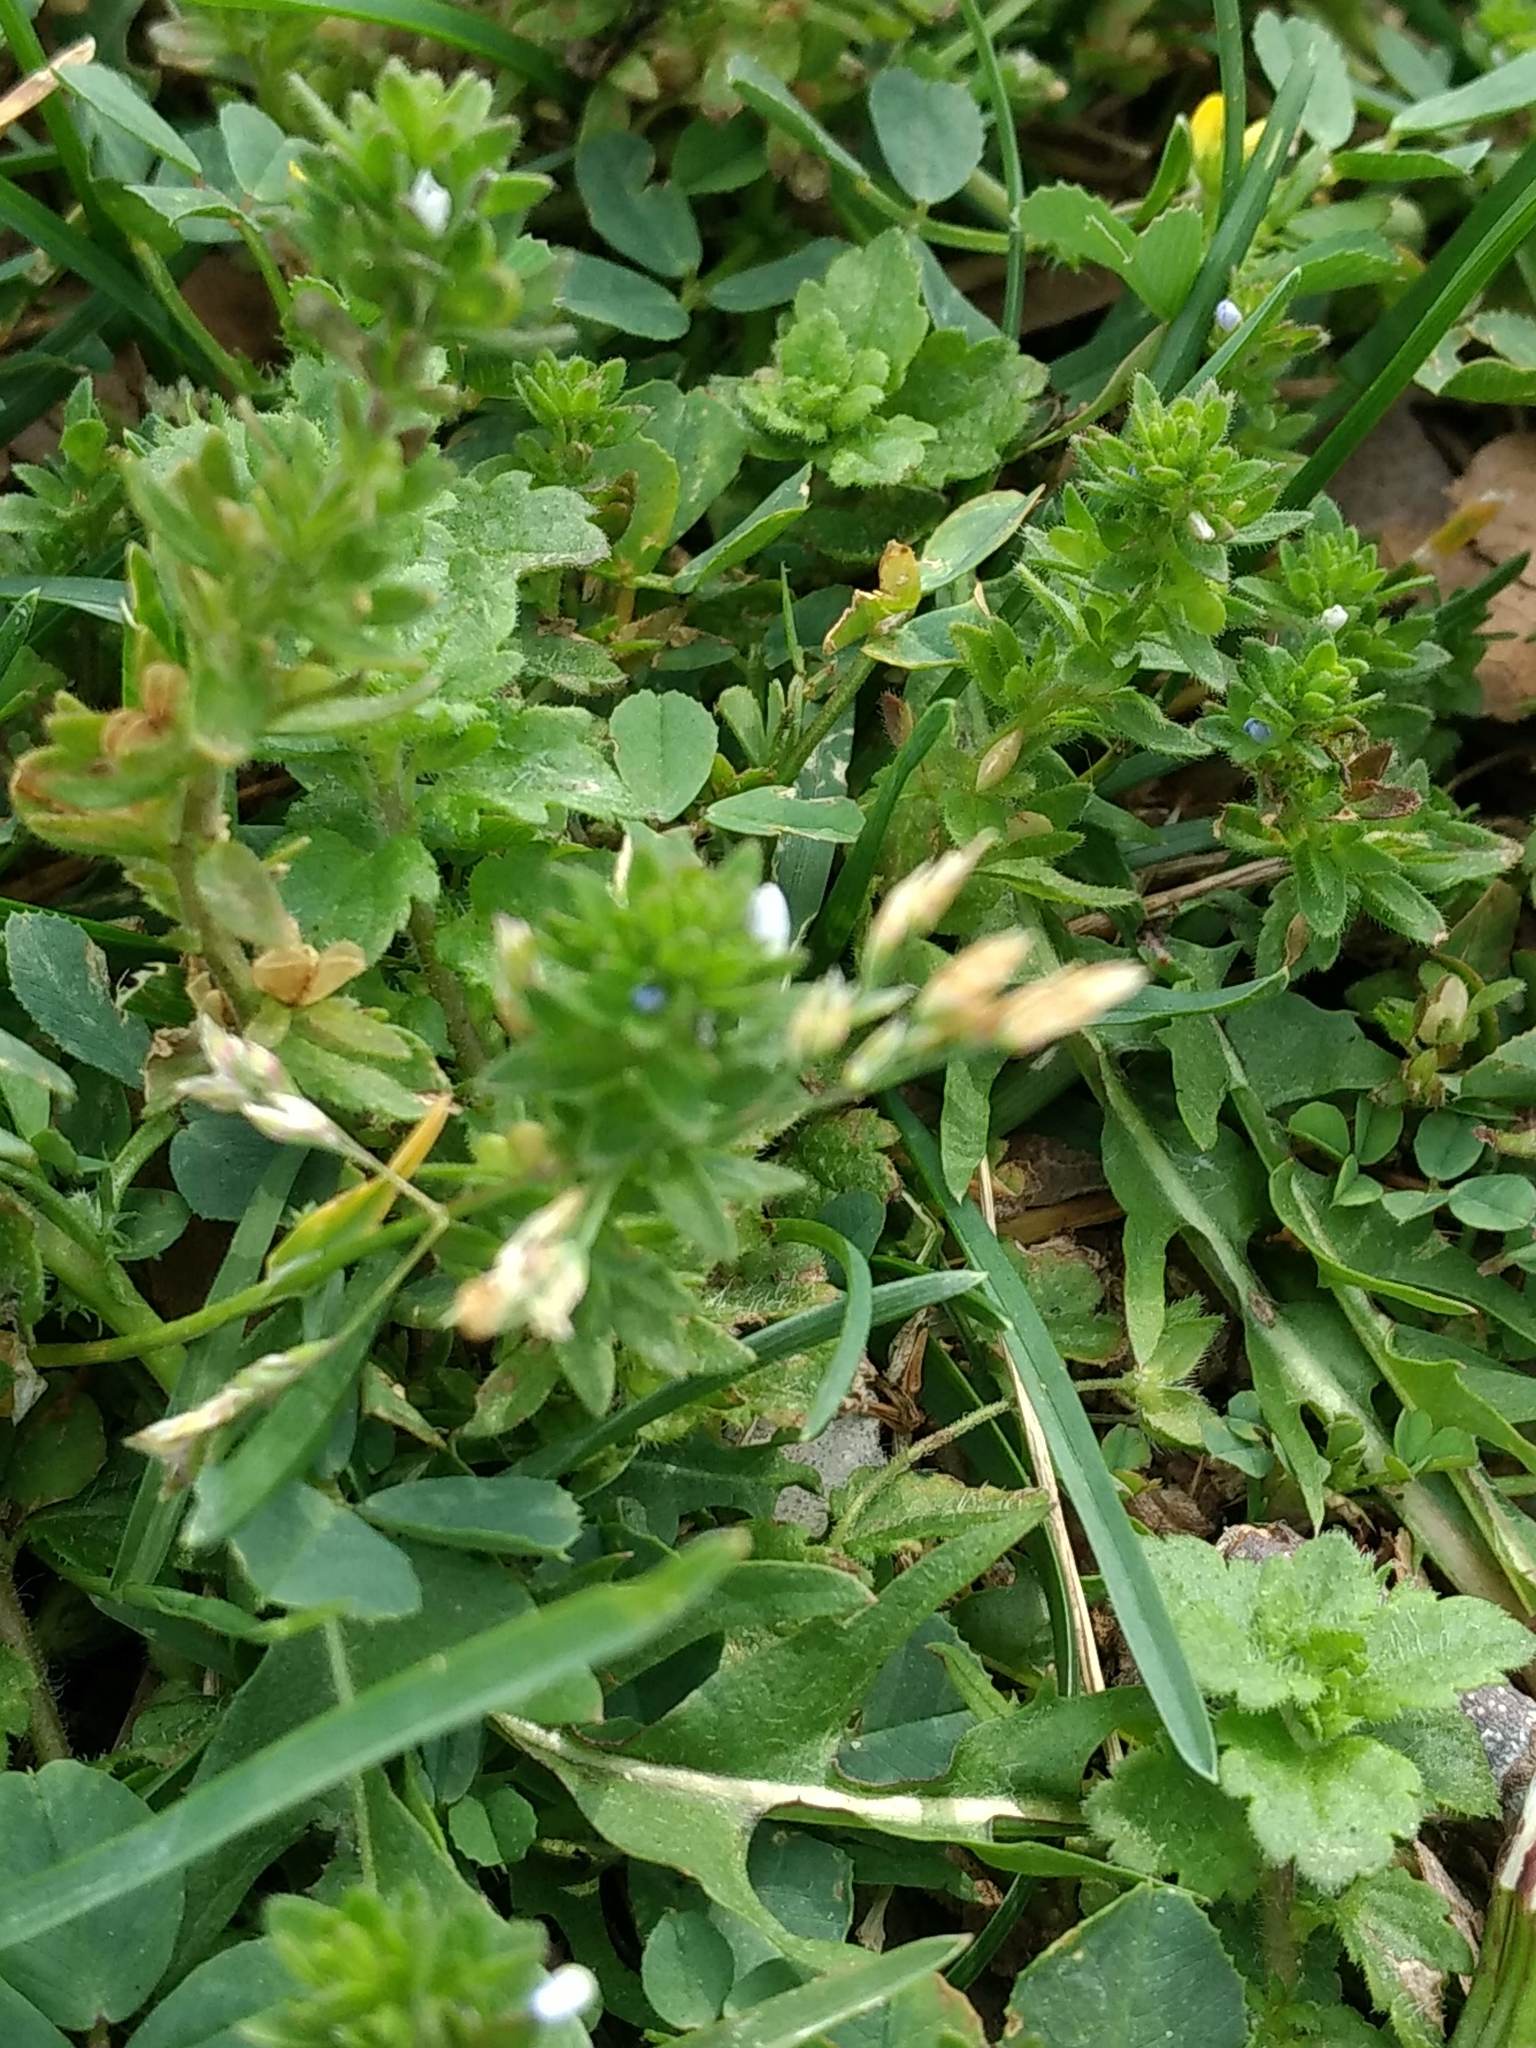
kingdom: Plantae
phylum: Tracheophyta
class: Magnoliopsida
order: Lamiales
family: Plantaginaceae
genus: Veronica
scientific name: Veronica arvensis
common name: Corn speedwell
